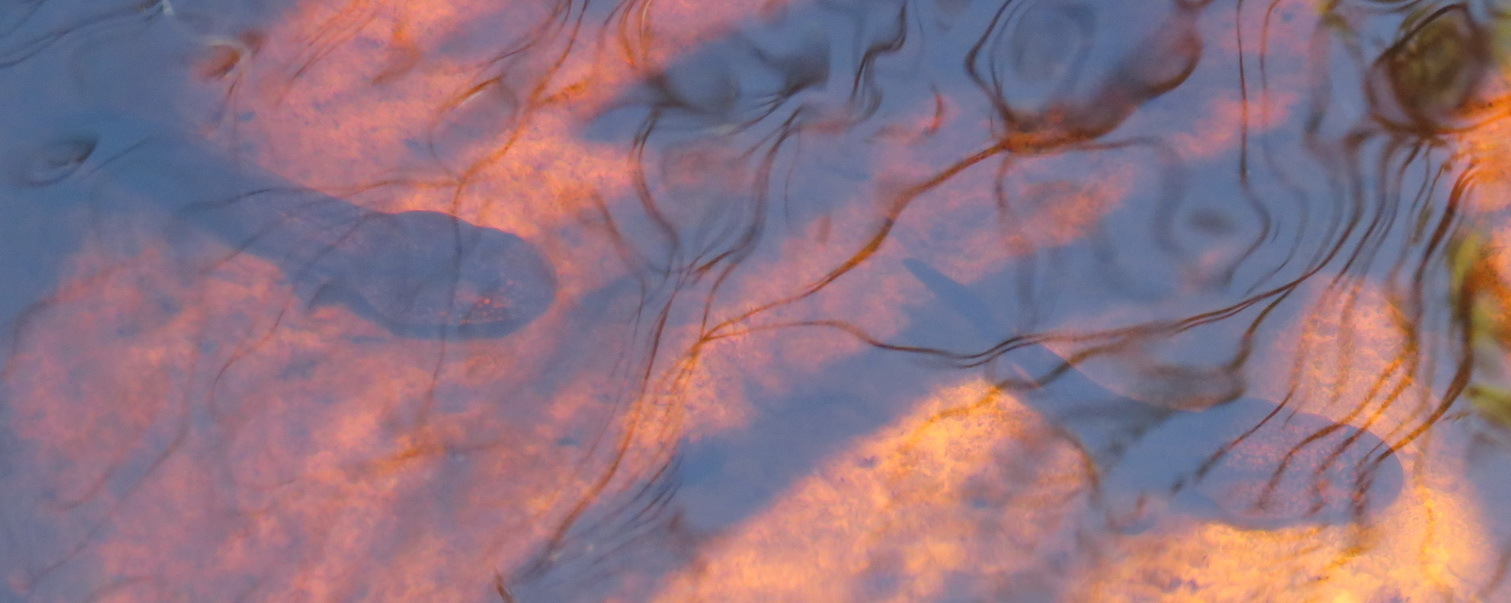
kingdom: Animalia
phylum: Chordata
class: Amphibia
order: Anura
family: Pyxicephalidae
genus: Amietia
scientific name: Amietia fuscigula
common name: Cape rana
